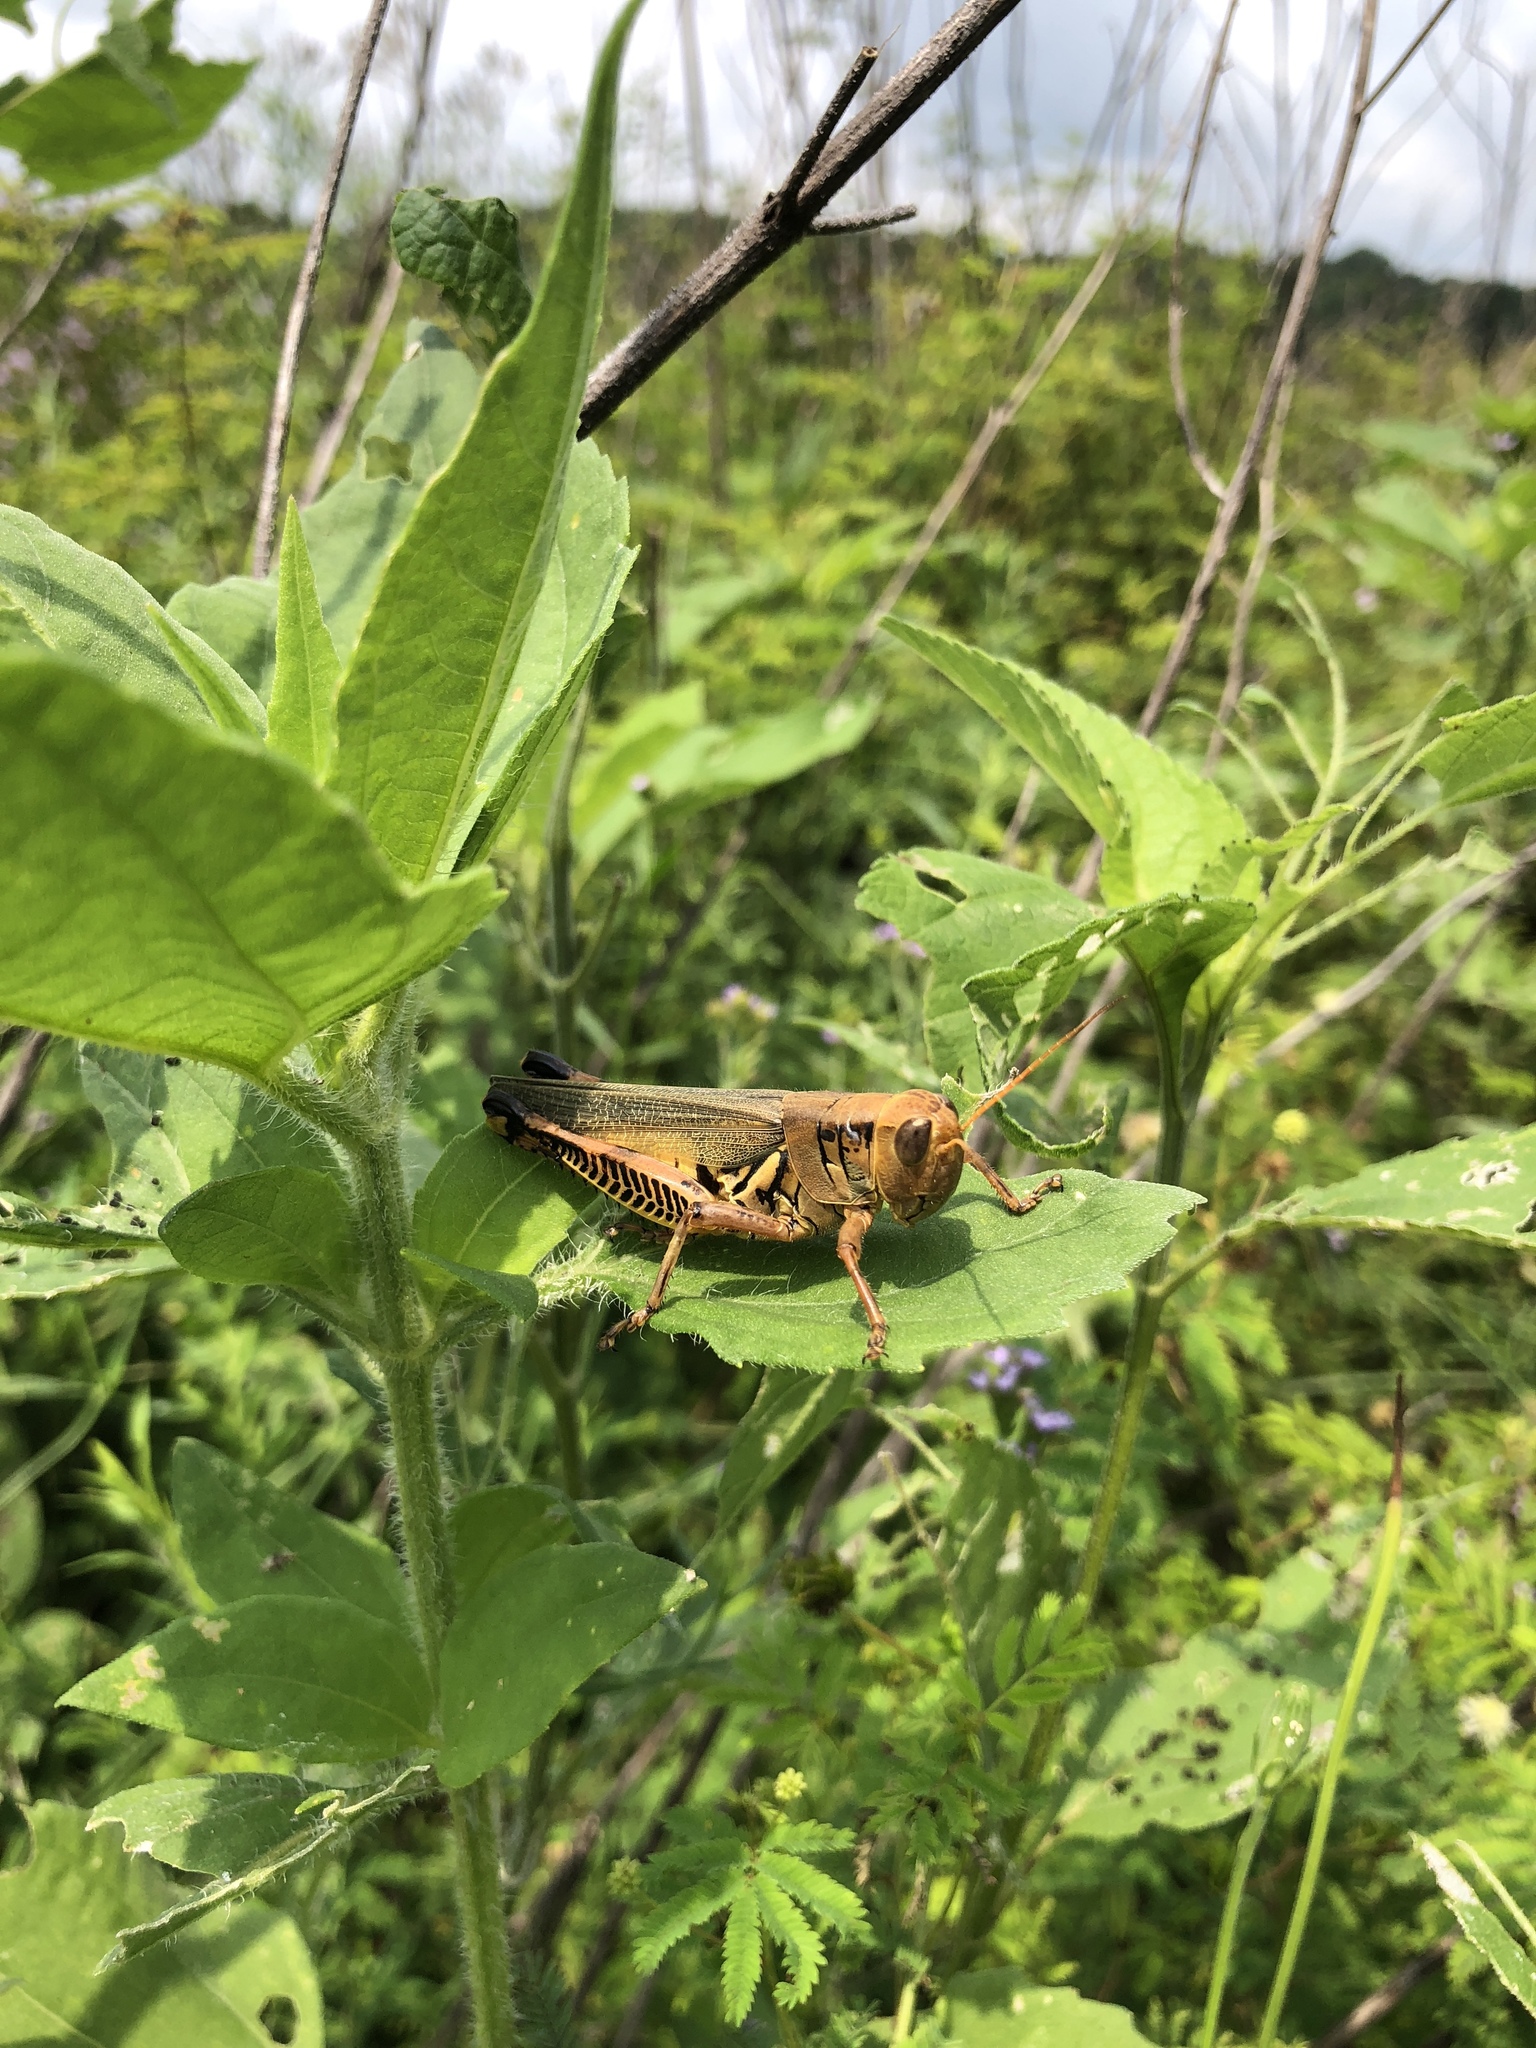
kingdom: Animalia
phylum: Arthropoda
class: Insecta
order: Orthoptera
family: Acrididae
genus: Melanoplus
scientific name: Melanoplus differentialis
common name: Differential grasshopper
